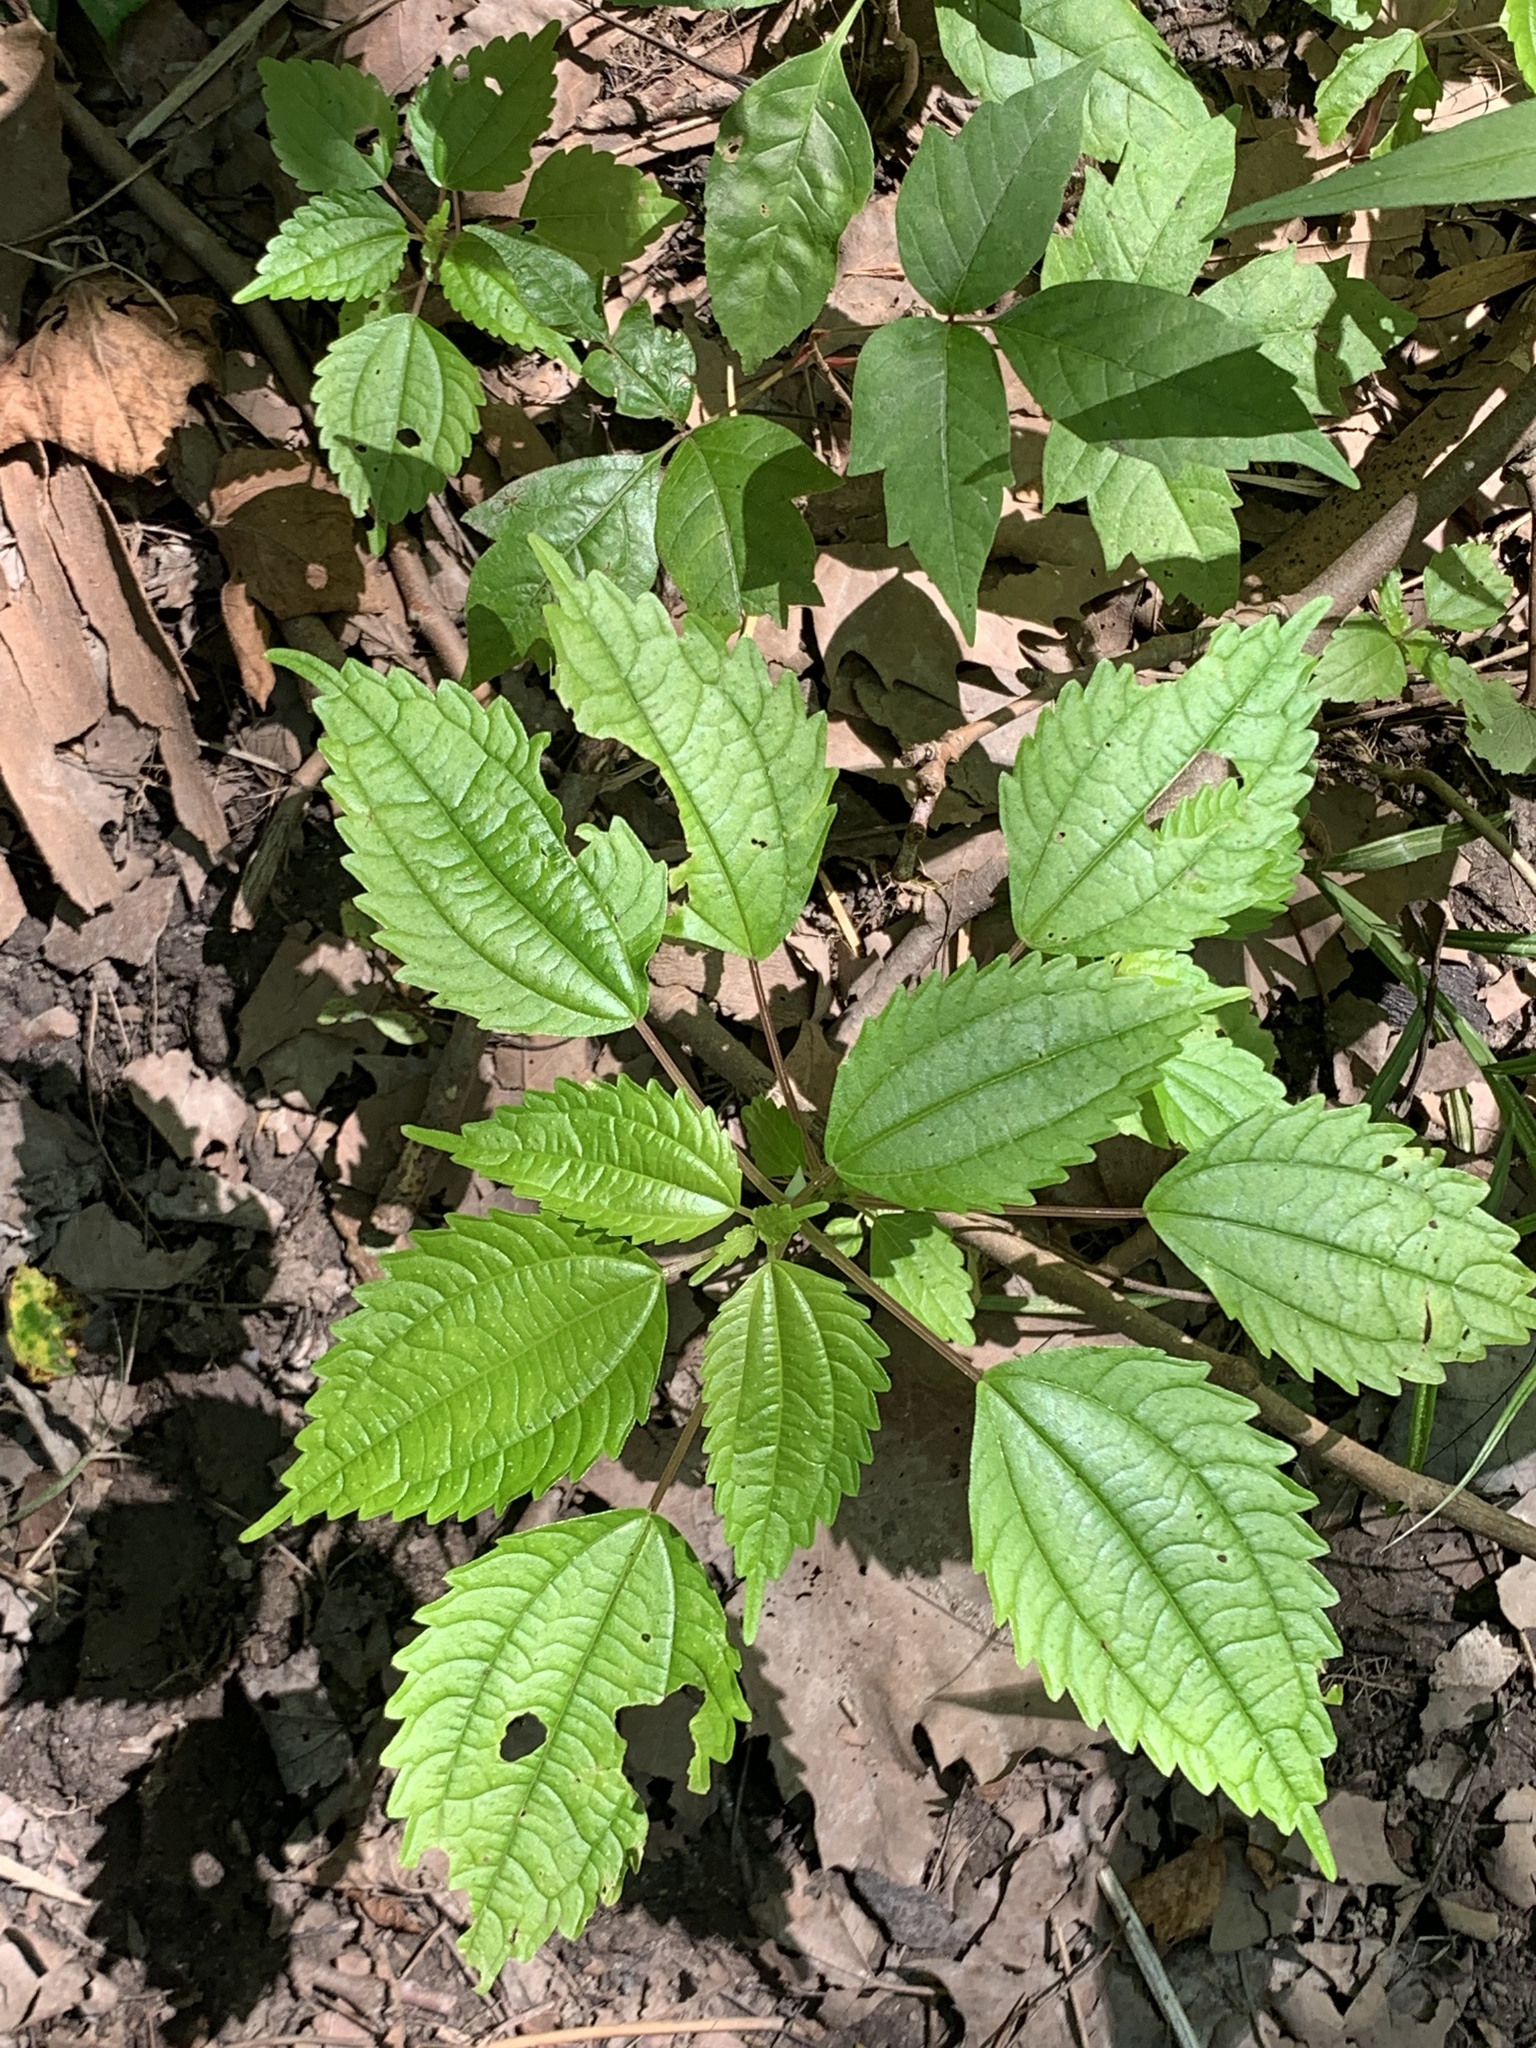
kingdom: Plantae
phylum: Tracheophyta
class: Magnoliopsida
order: Rosales
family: Urticaceae
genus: Pilea
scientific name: Pilea pumila
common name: Clearweed
